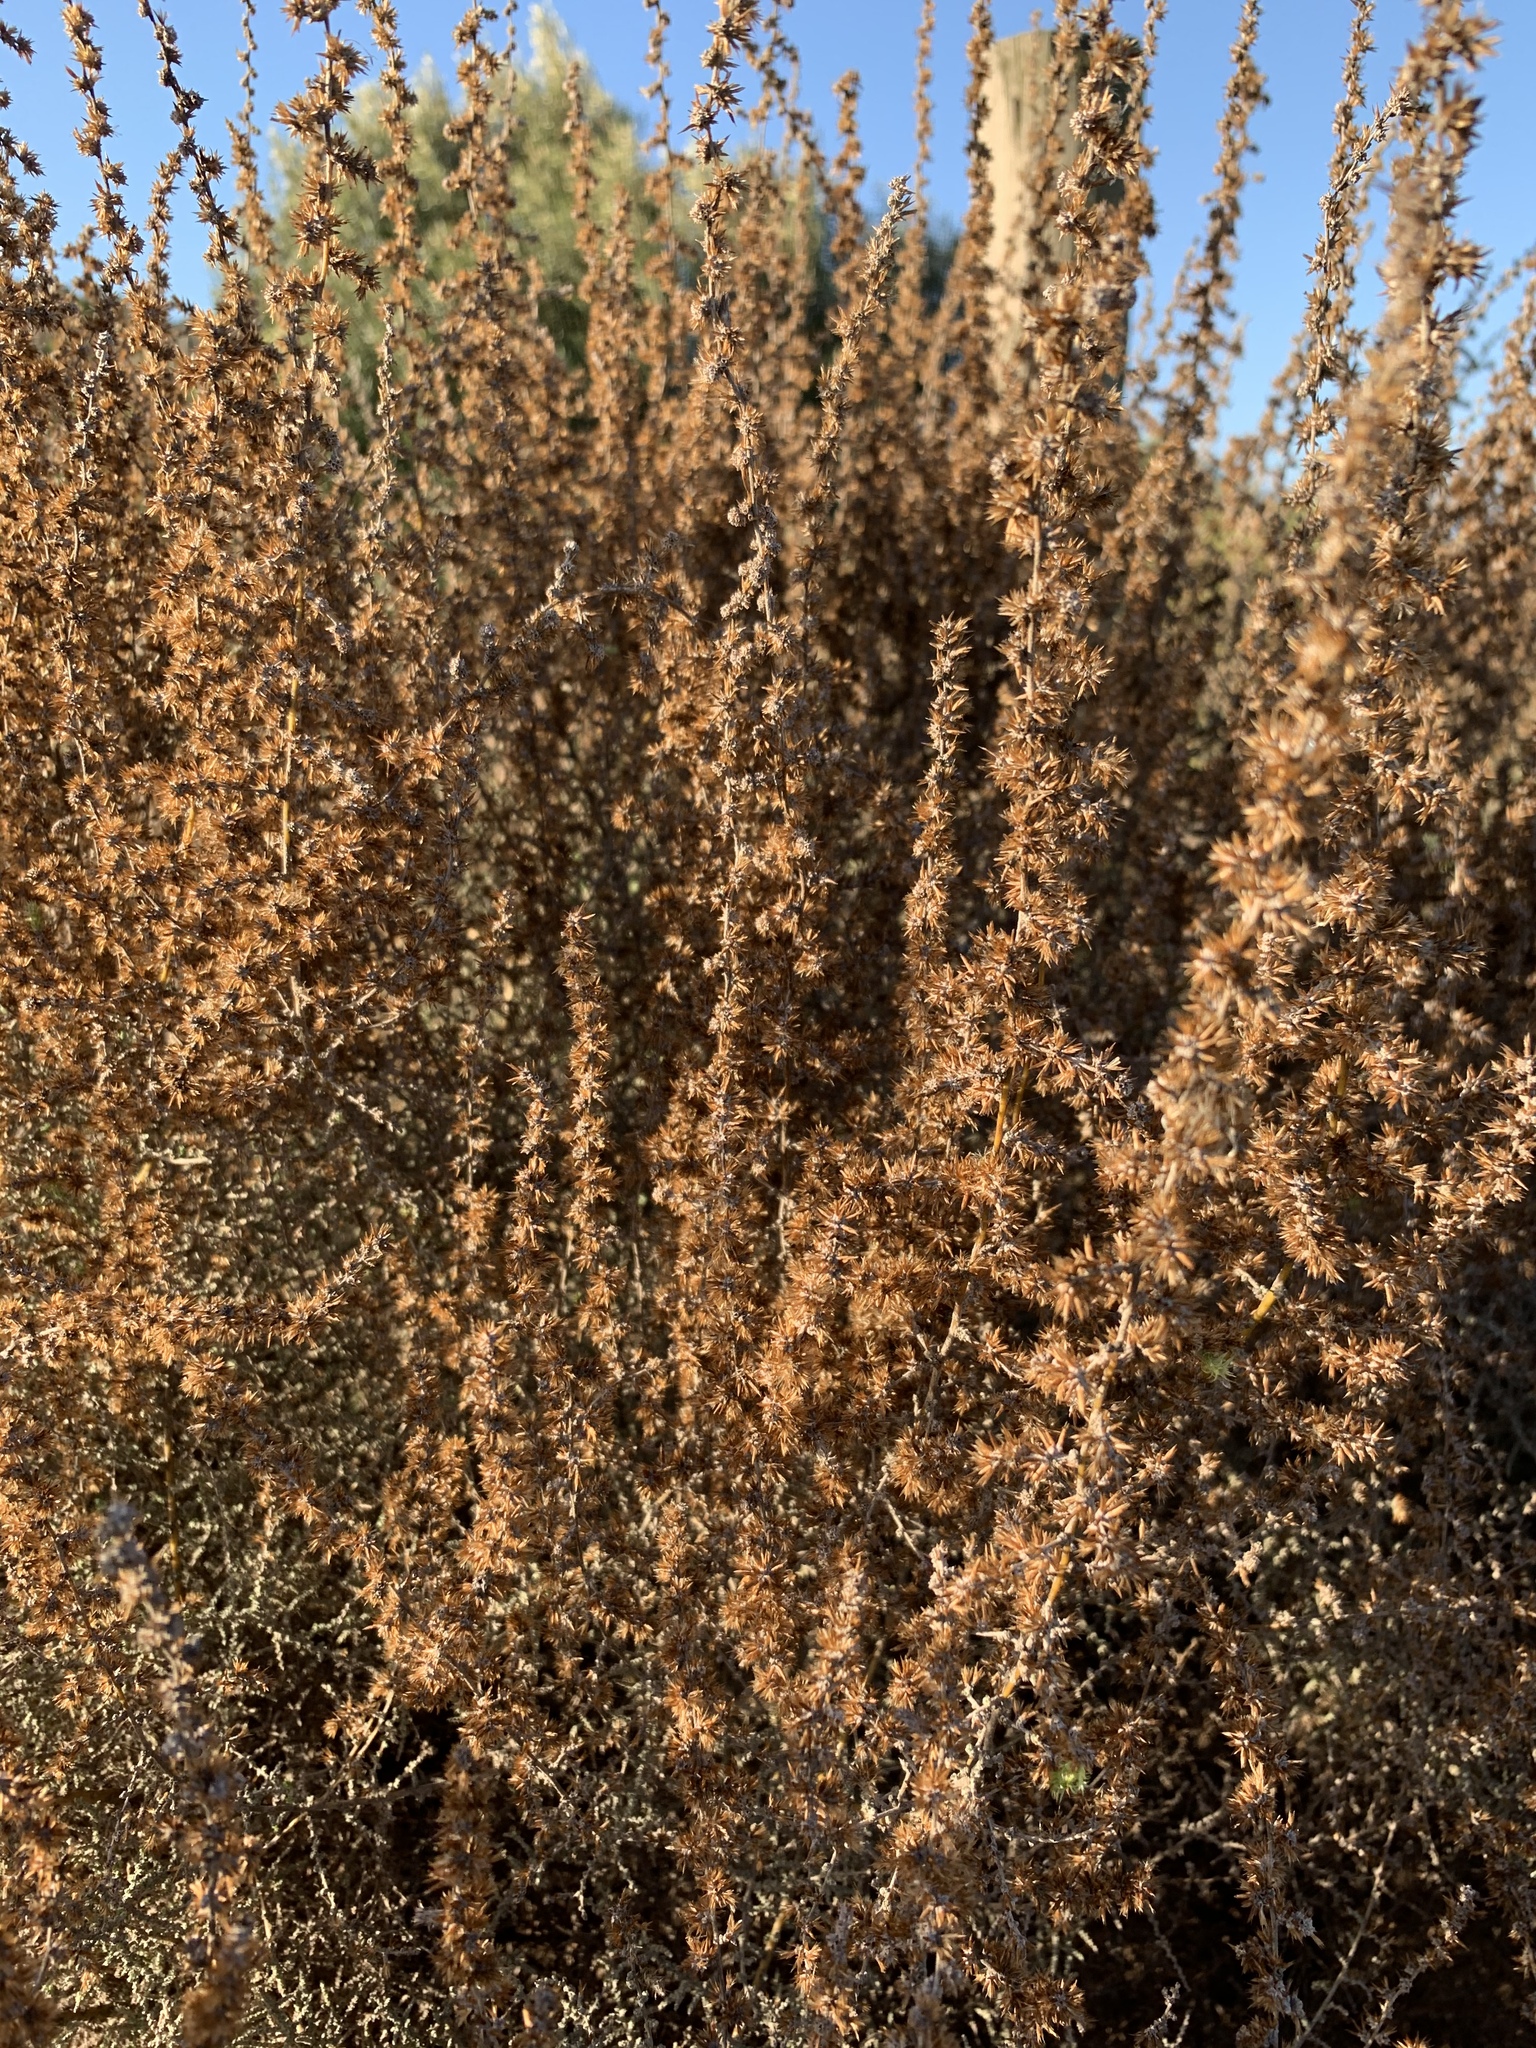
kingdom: Plantae
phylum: Tracheophyta
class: Magnoliopsida
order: Asterales
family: Asteraceae
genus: Seriphium
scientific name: Seriphium plumosum
